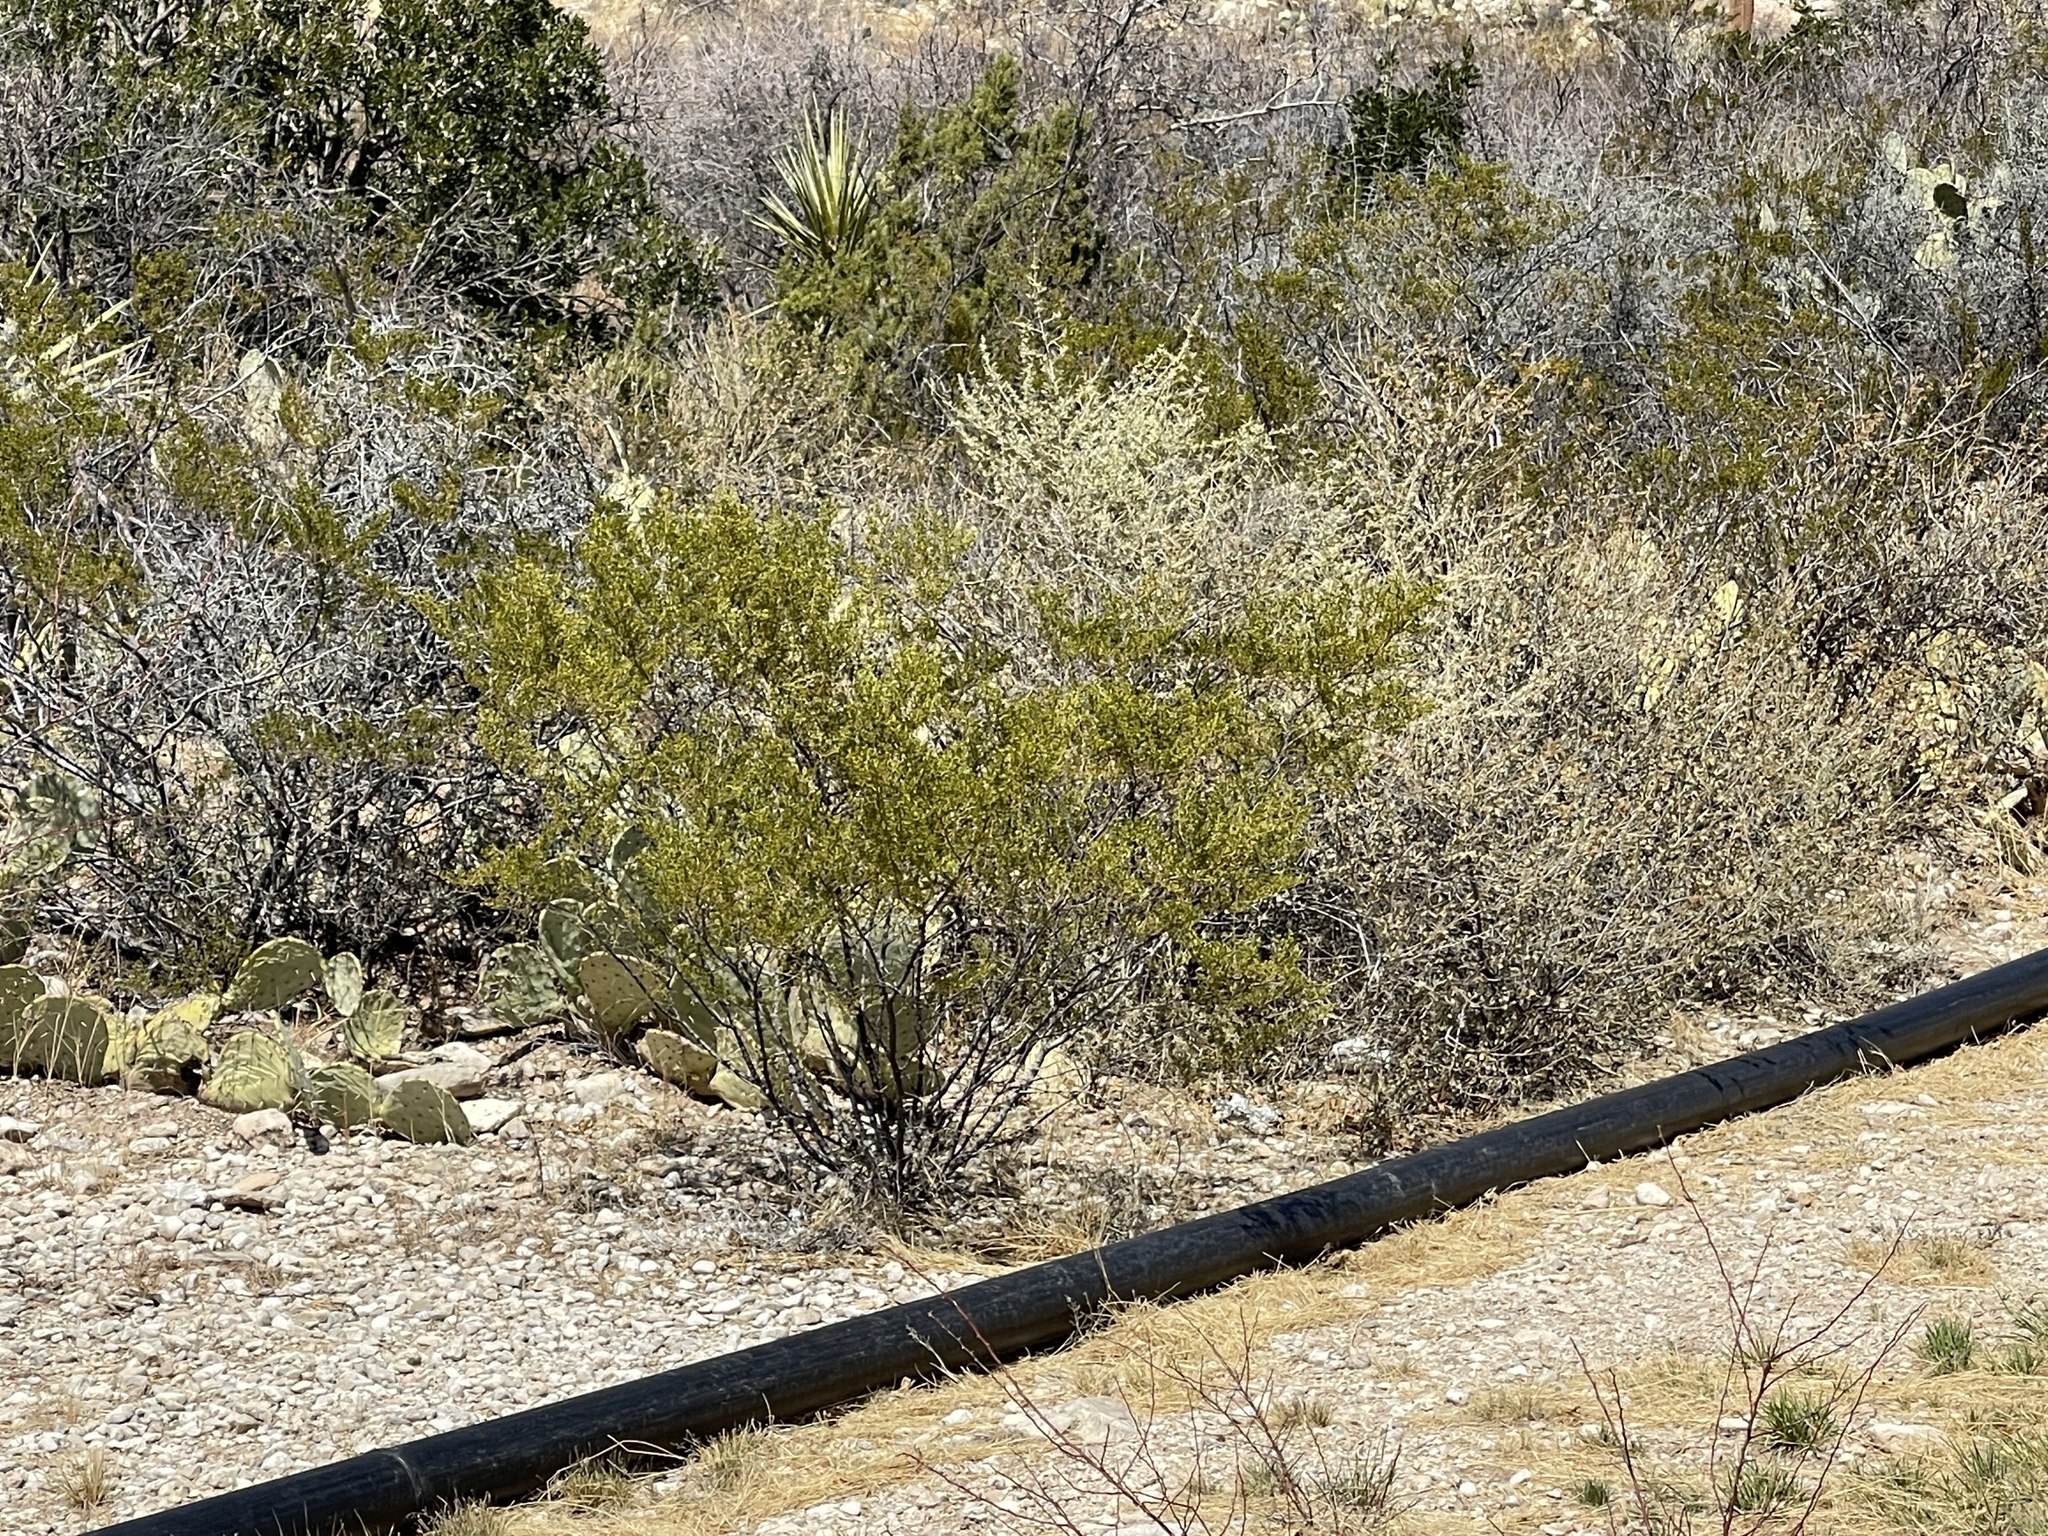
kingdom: Plantae
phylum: Tracheophyta
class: Magnoliopsida
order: Zygophyllales
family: Zygophyllaceae
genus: Larrea
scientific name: Larrea tridentata
